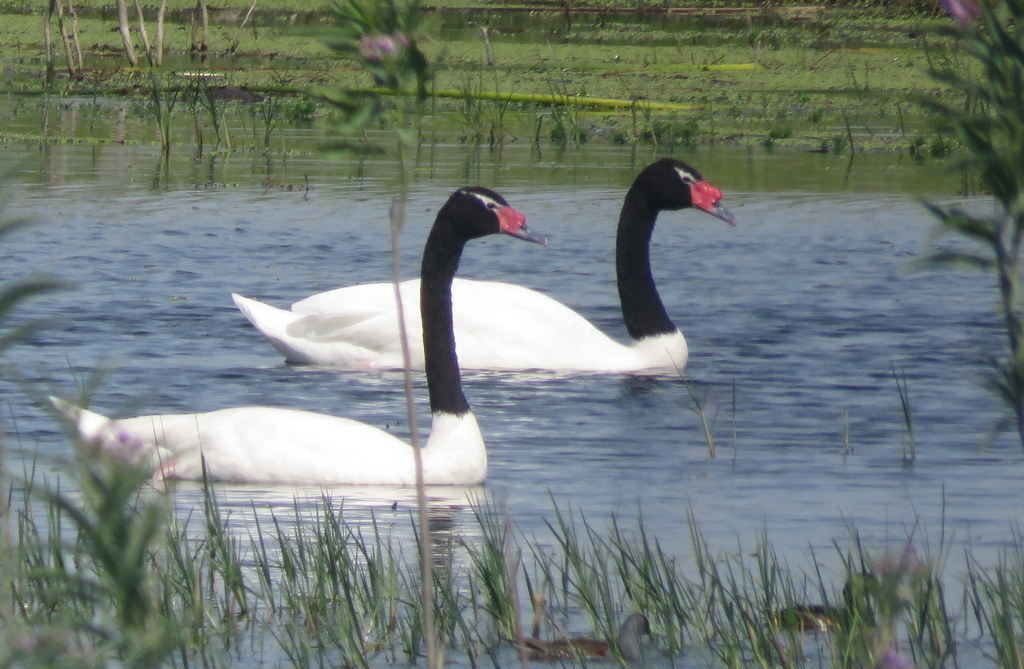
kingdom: Animalia
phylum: Chordata
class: Aves
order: Anseriformes
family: Anatidae
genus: Cygnus
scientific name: Cygnus melancoryphus
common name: Black-necked swan
